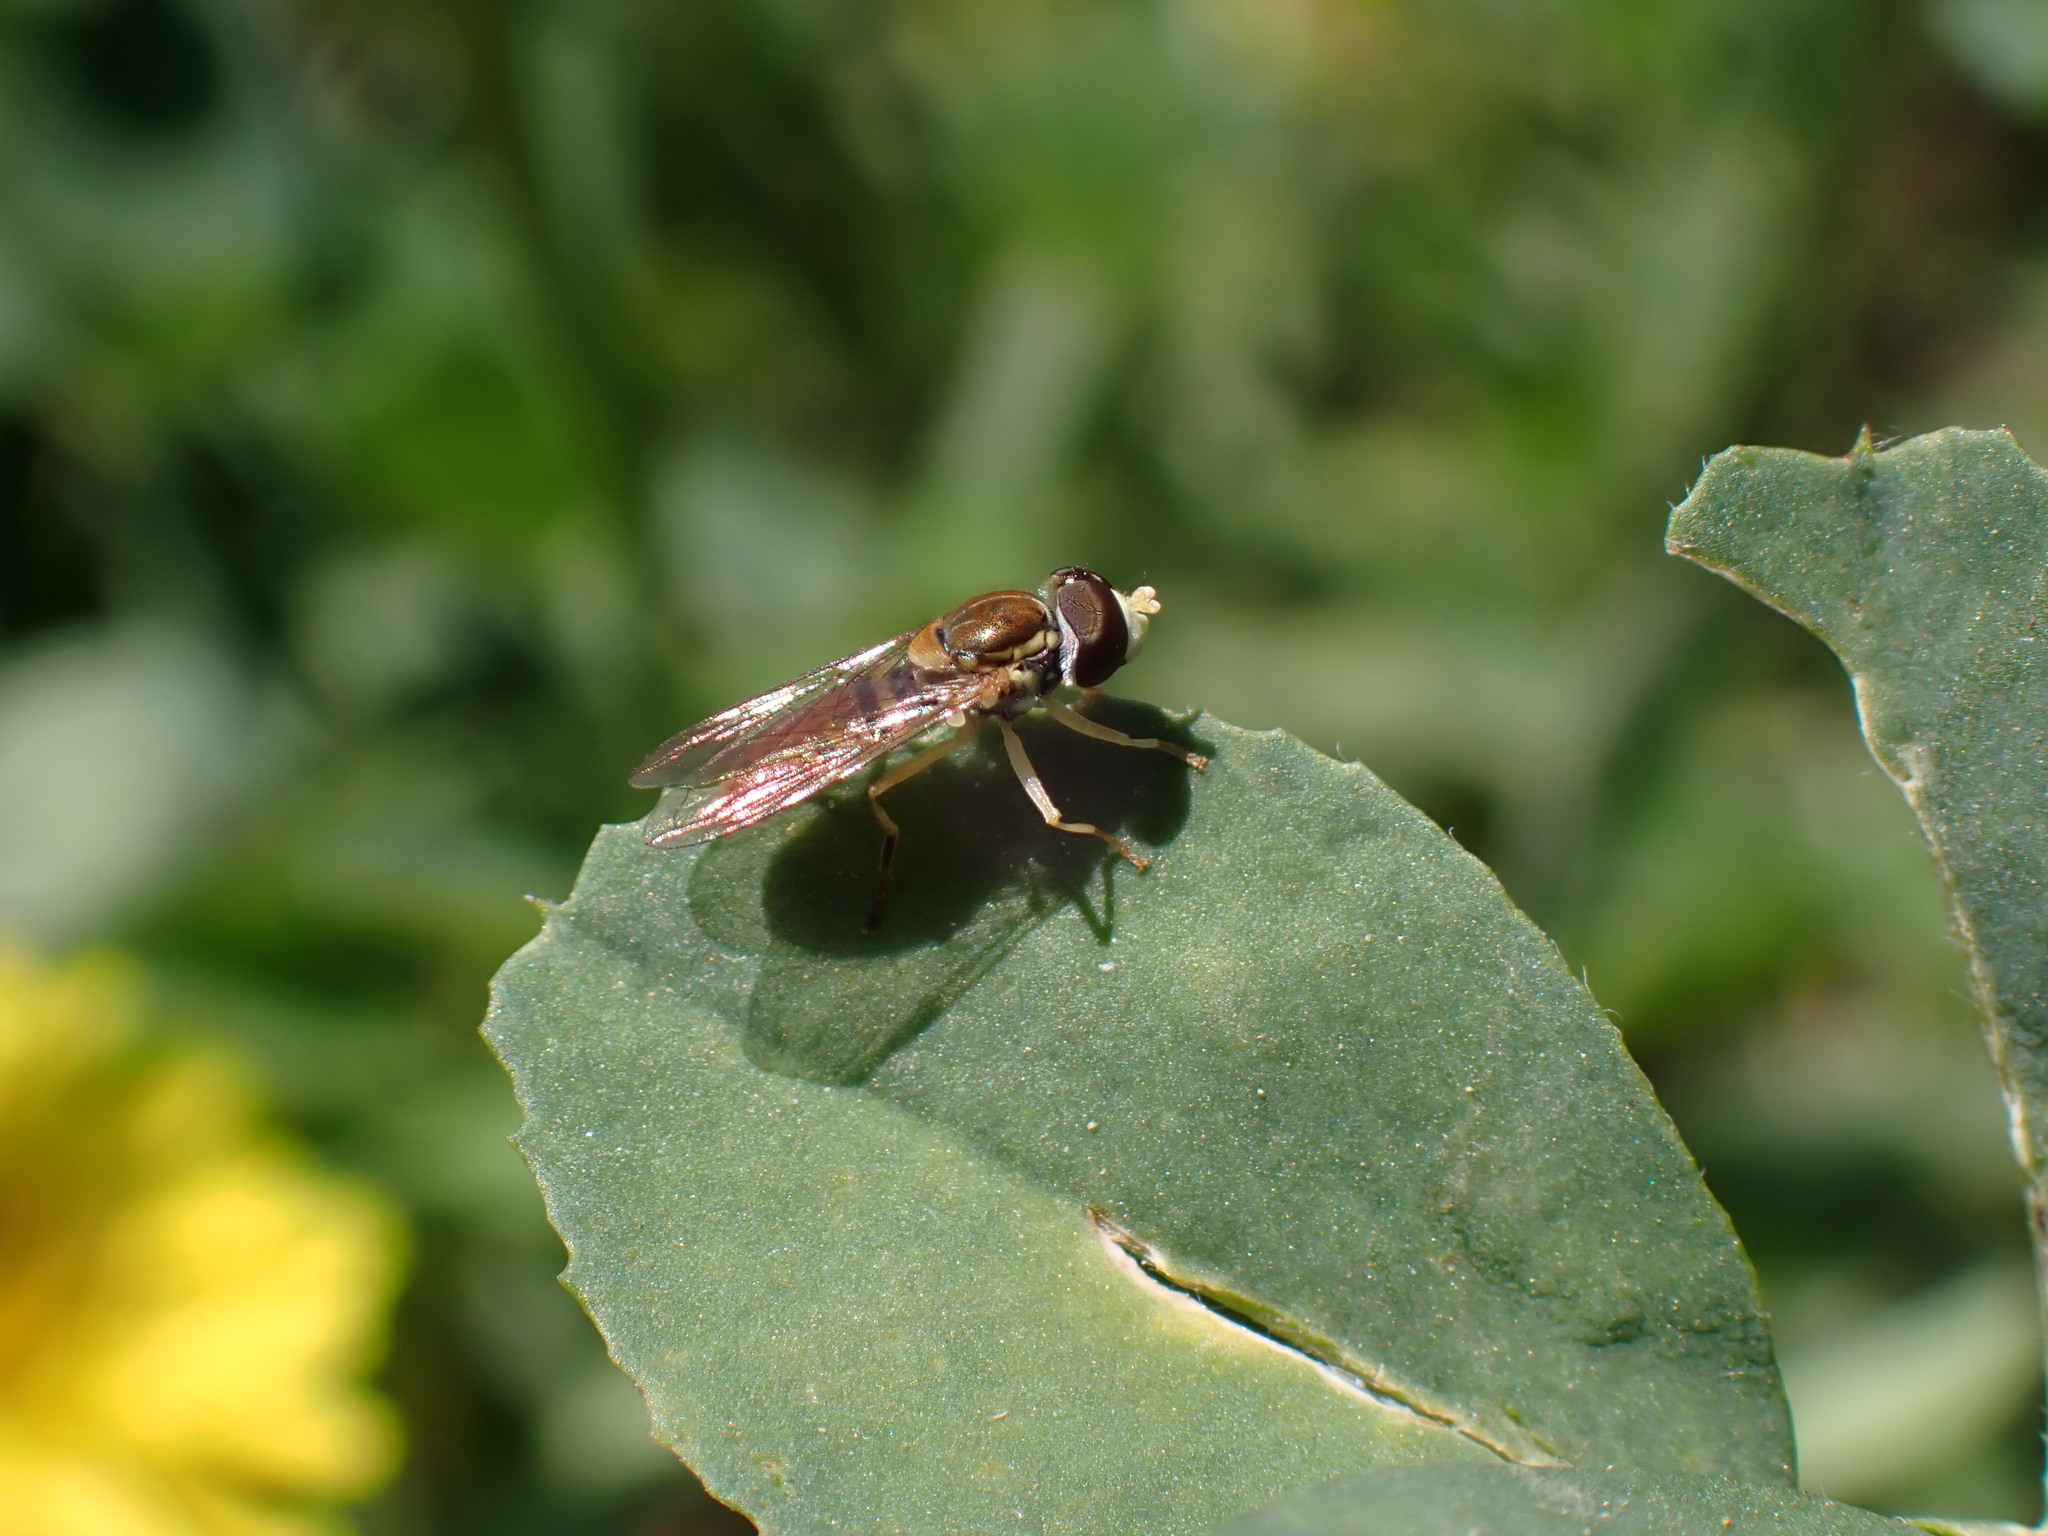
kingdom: Animalia
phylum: Arthropoda
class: Insecta
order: Diptera
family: Syrphidae
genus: Toxomerus
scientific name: Toxomerus marginatus
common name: Syrphid fly
